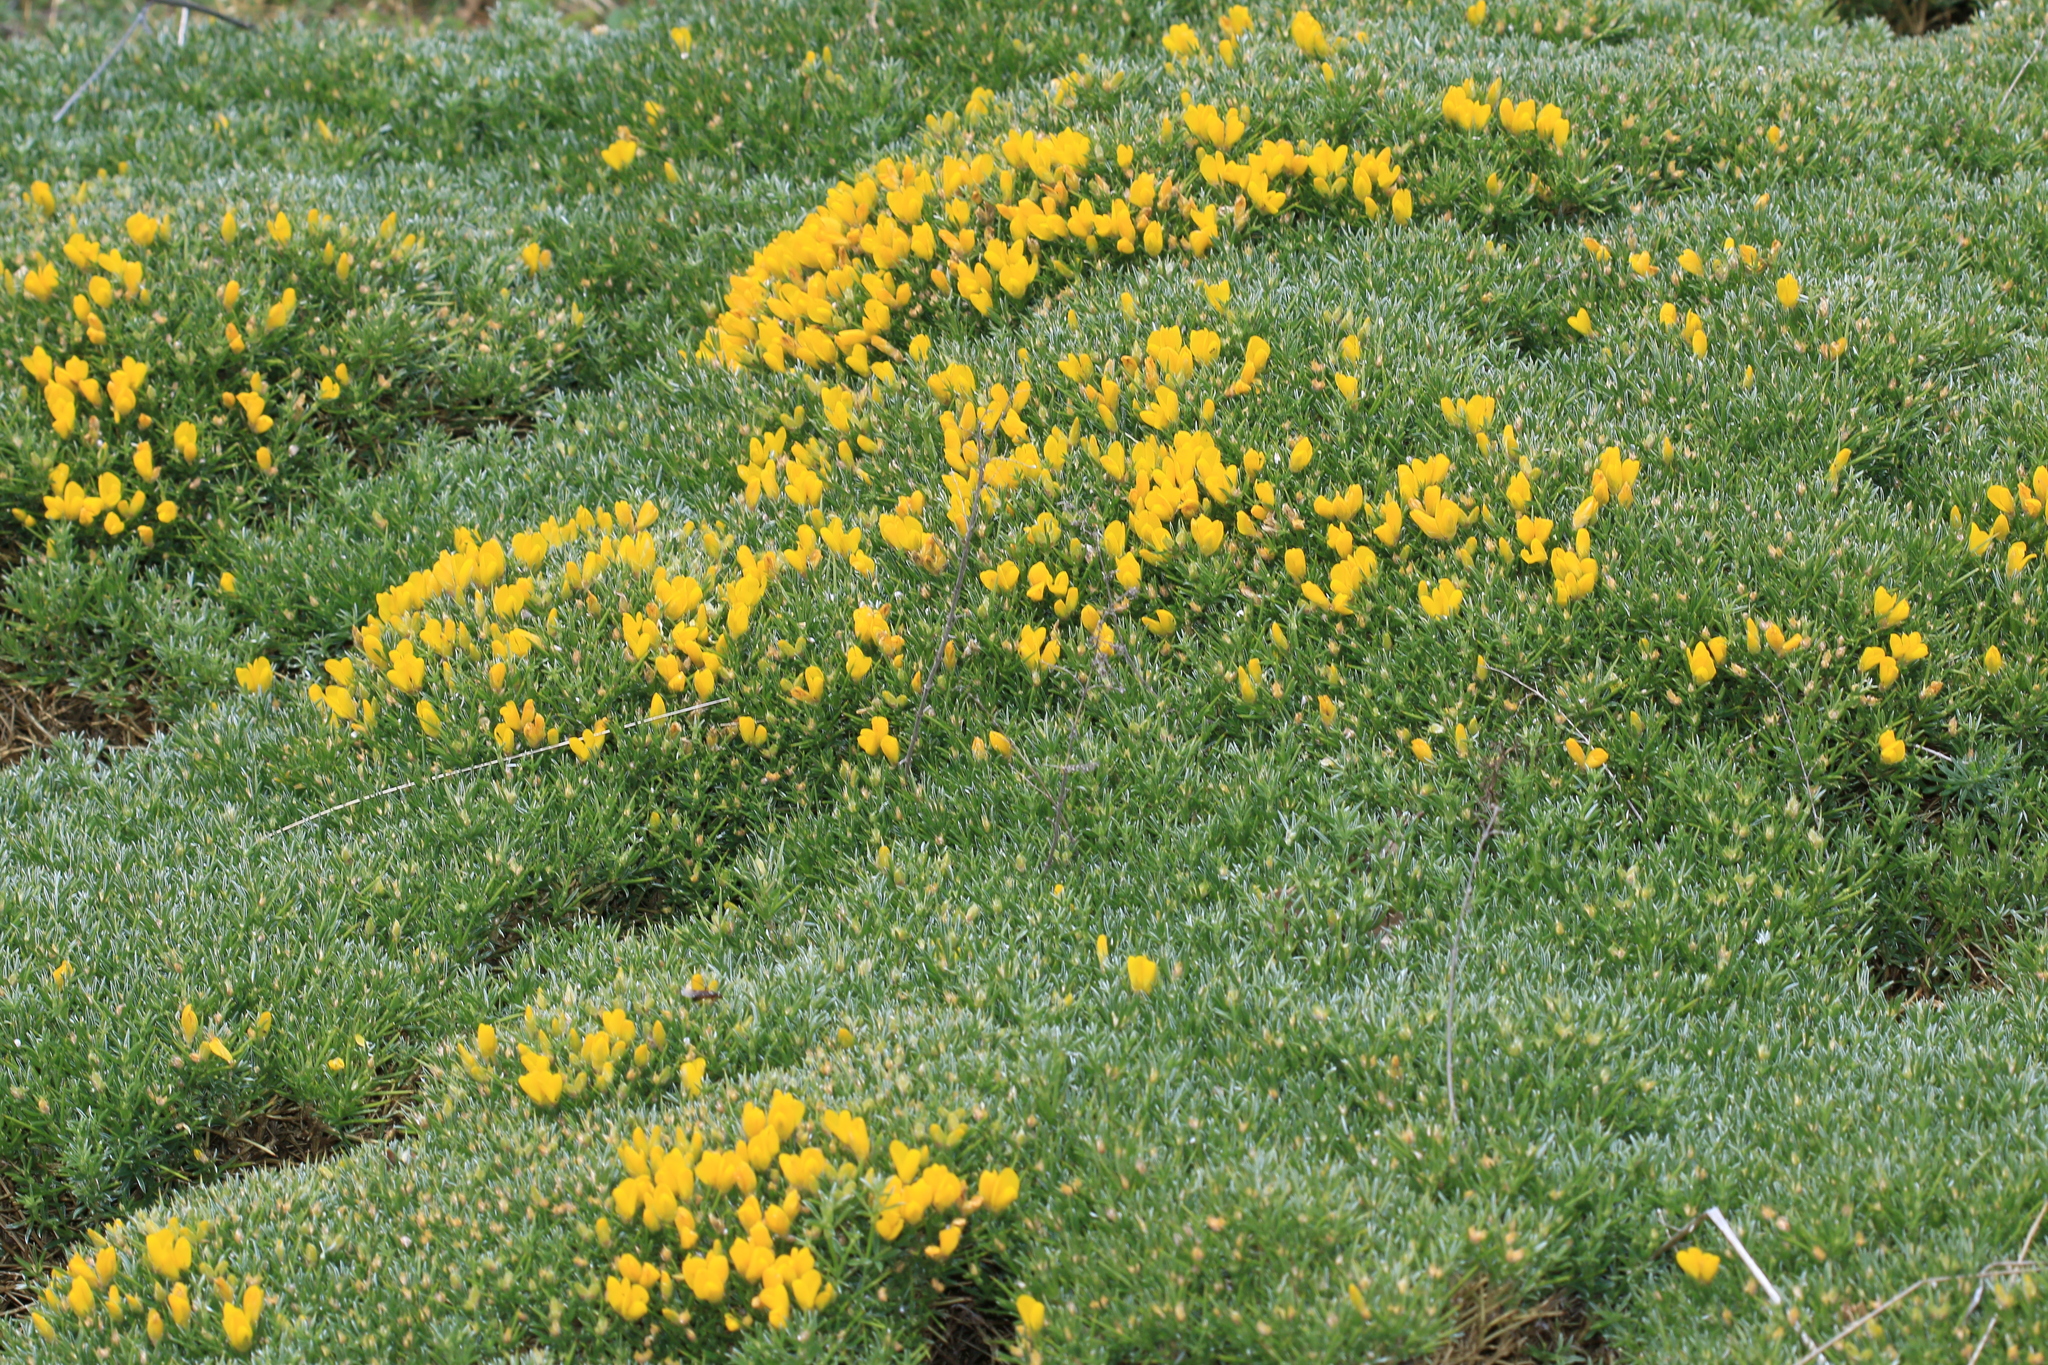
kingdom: Plantae
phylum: Tracheophyta
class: Magnoliopsida
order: Fabales
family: Fabaceae
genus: Echinospartum
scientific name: Echinospartum horridum
